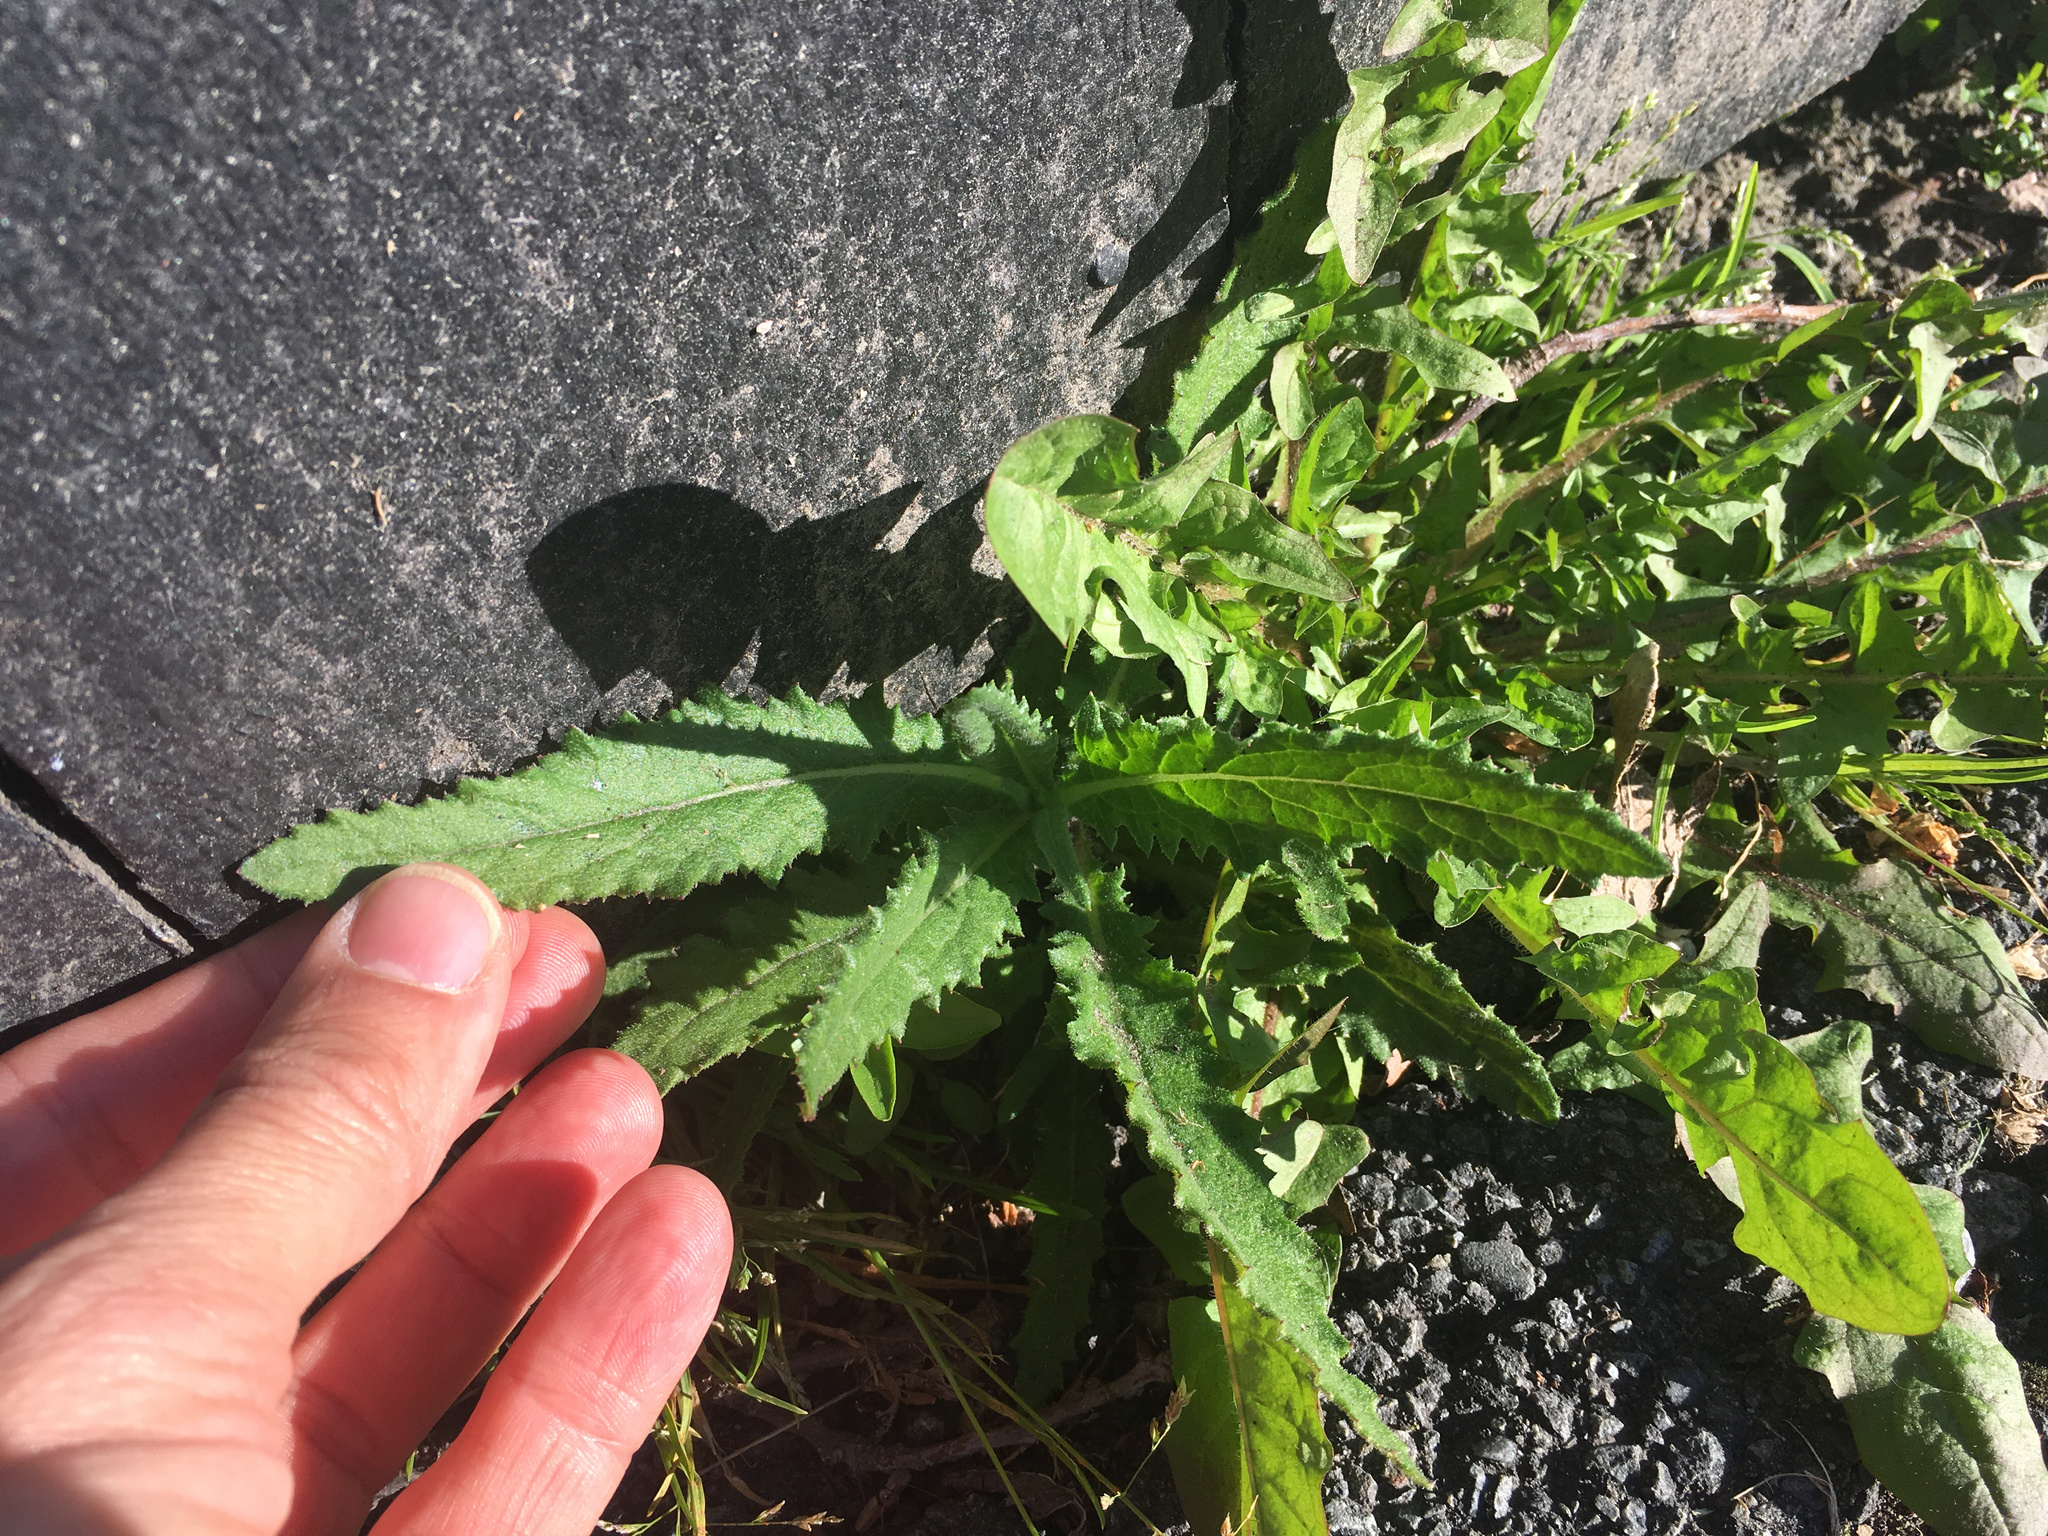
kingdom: Plantae
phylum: Tracheophyta
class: Magnoliopsida
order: Asterales
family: Asteraceae
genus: Senecio
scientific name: Senecio minimus
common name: Toothed fireweed
